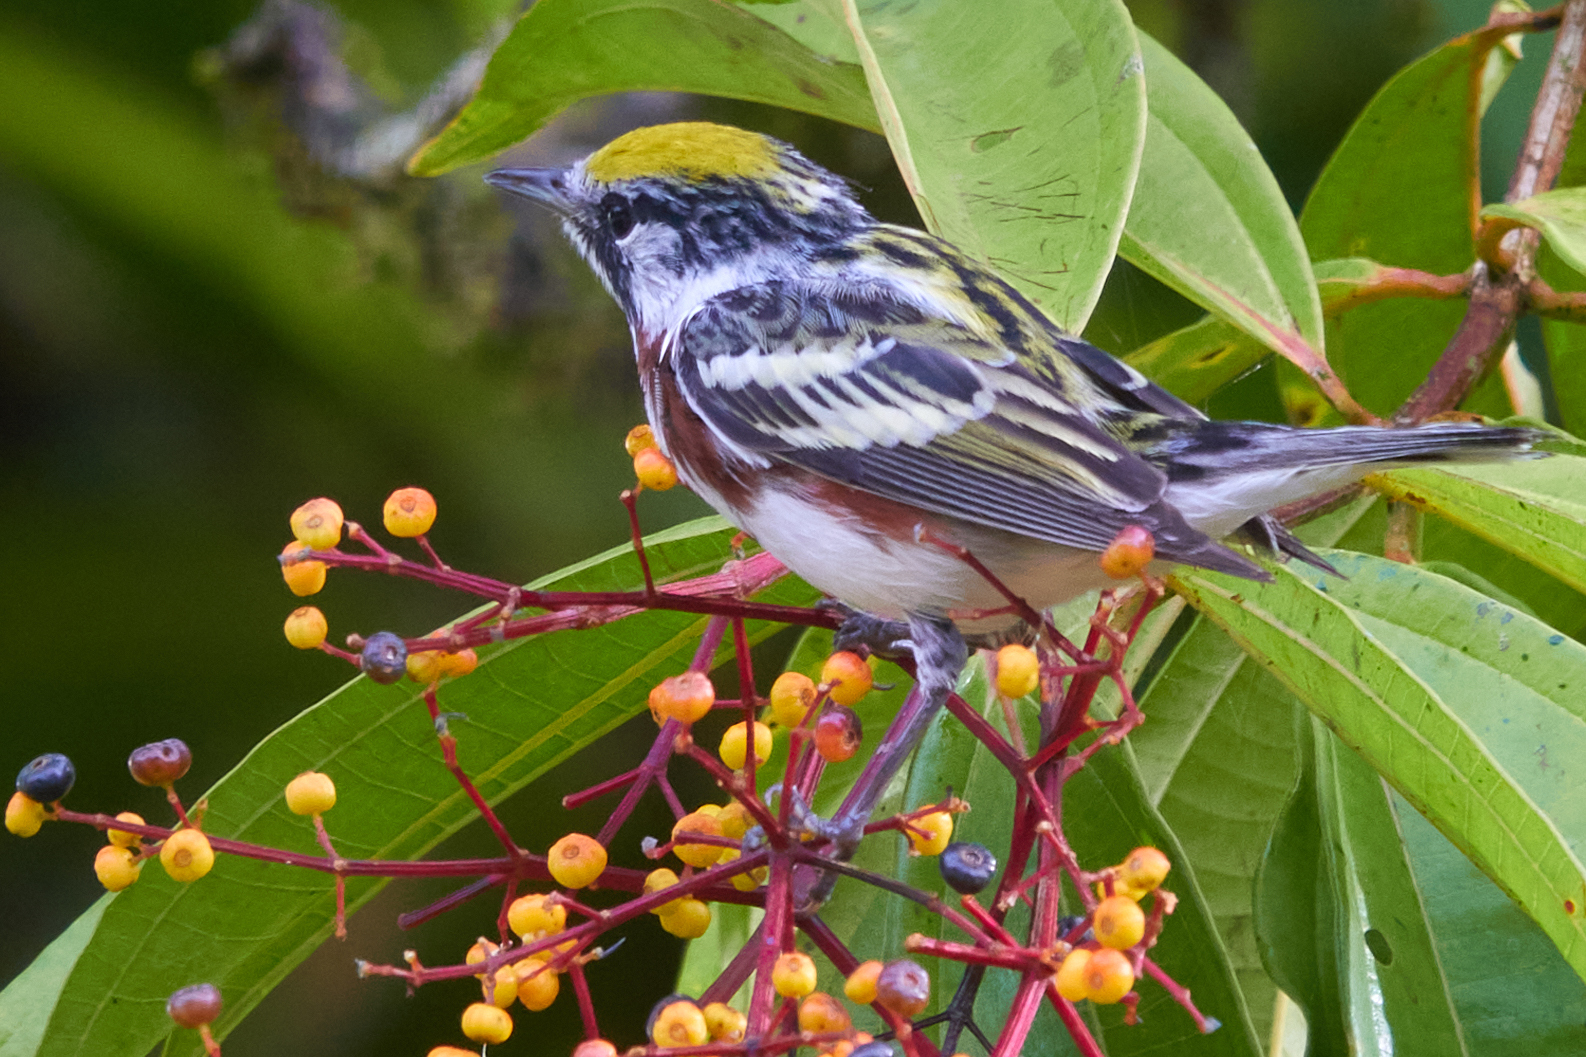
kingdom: Animalia
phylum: Chordata
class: Aves
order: Passeriformes
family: Parulidae
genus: Setophaga
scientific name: Setophaga pensylvanica
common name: Chestnut-sided warbler
